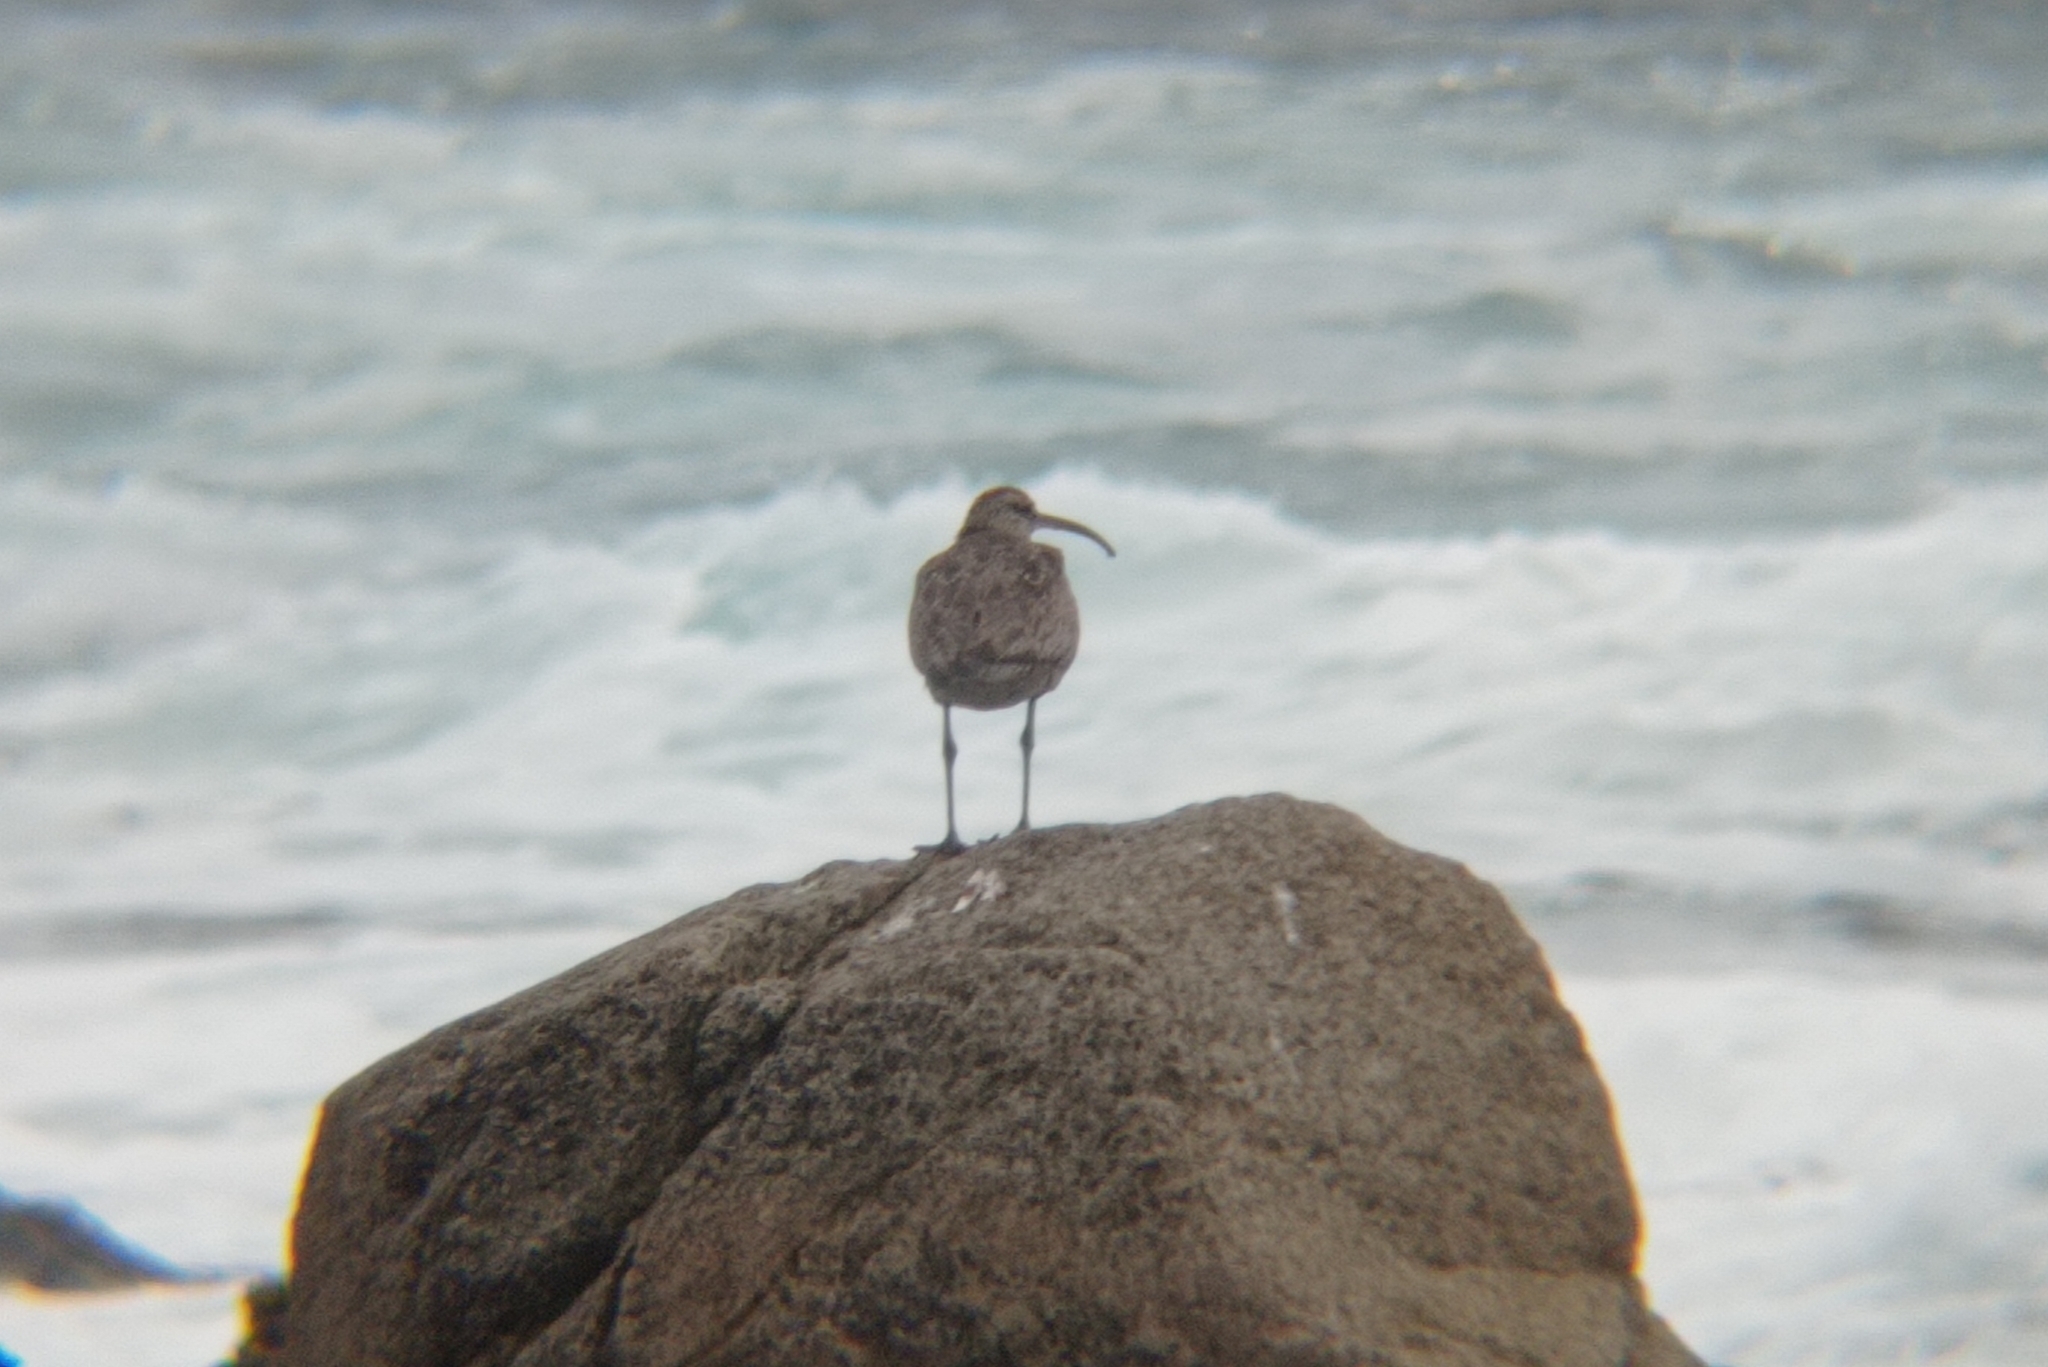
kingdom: Animalia
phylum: Chordata
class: Aves
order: Charadriiformes
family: Scolopacidae
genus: Numenius
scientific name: Numenius phaeopus
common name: Whimbrel
